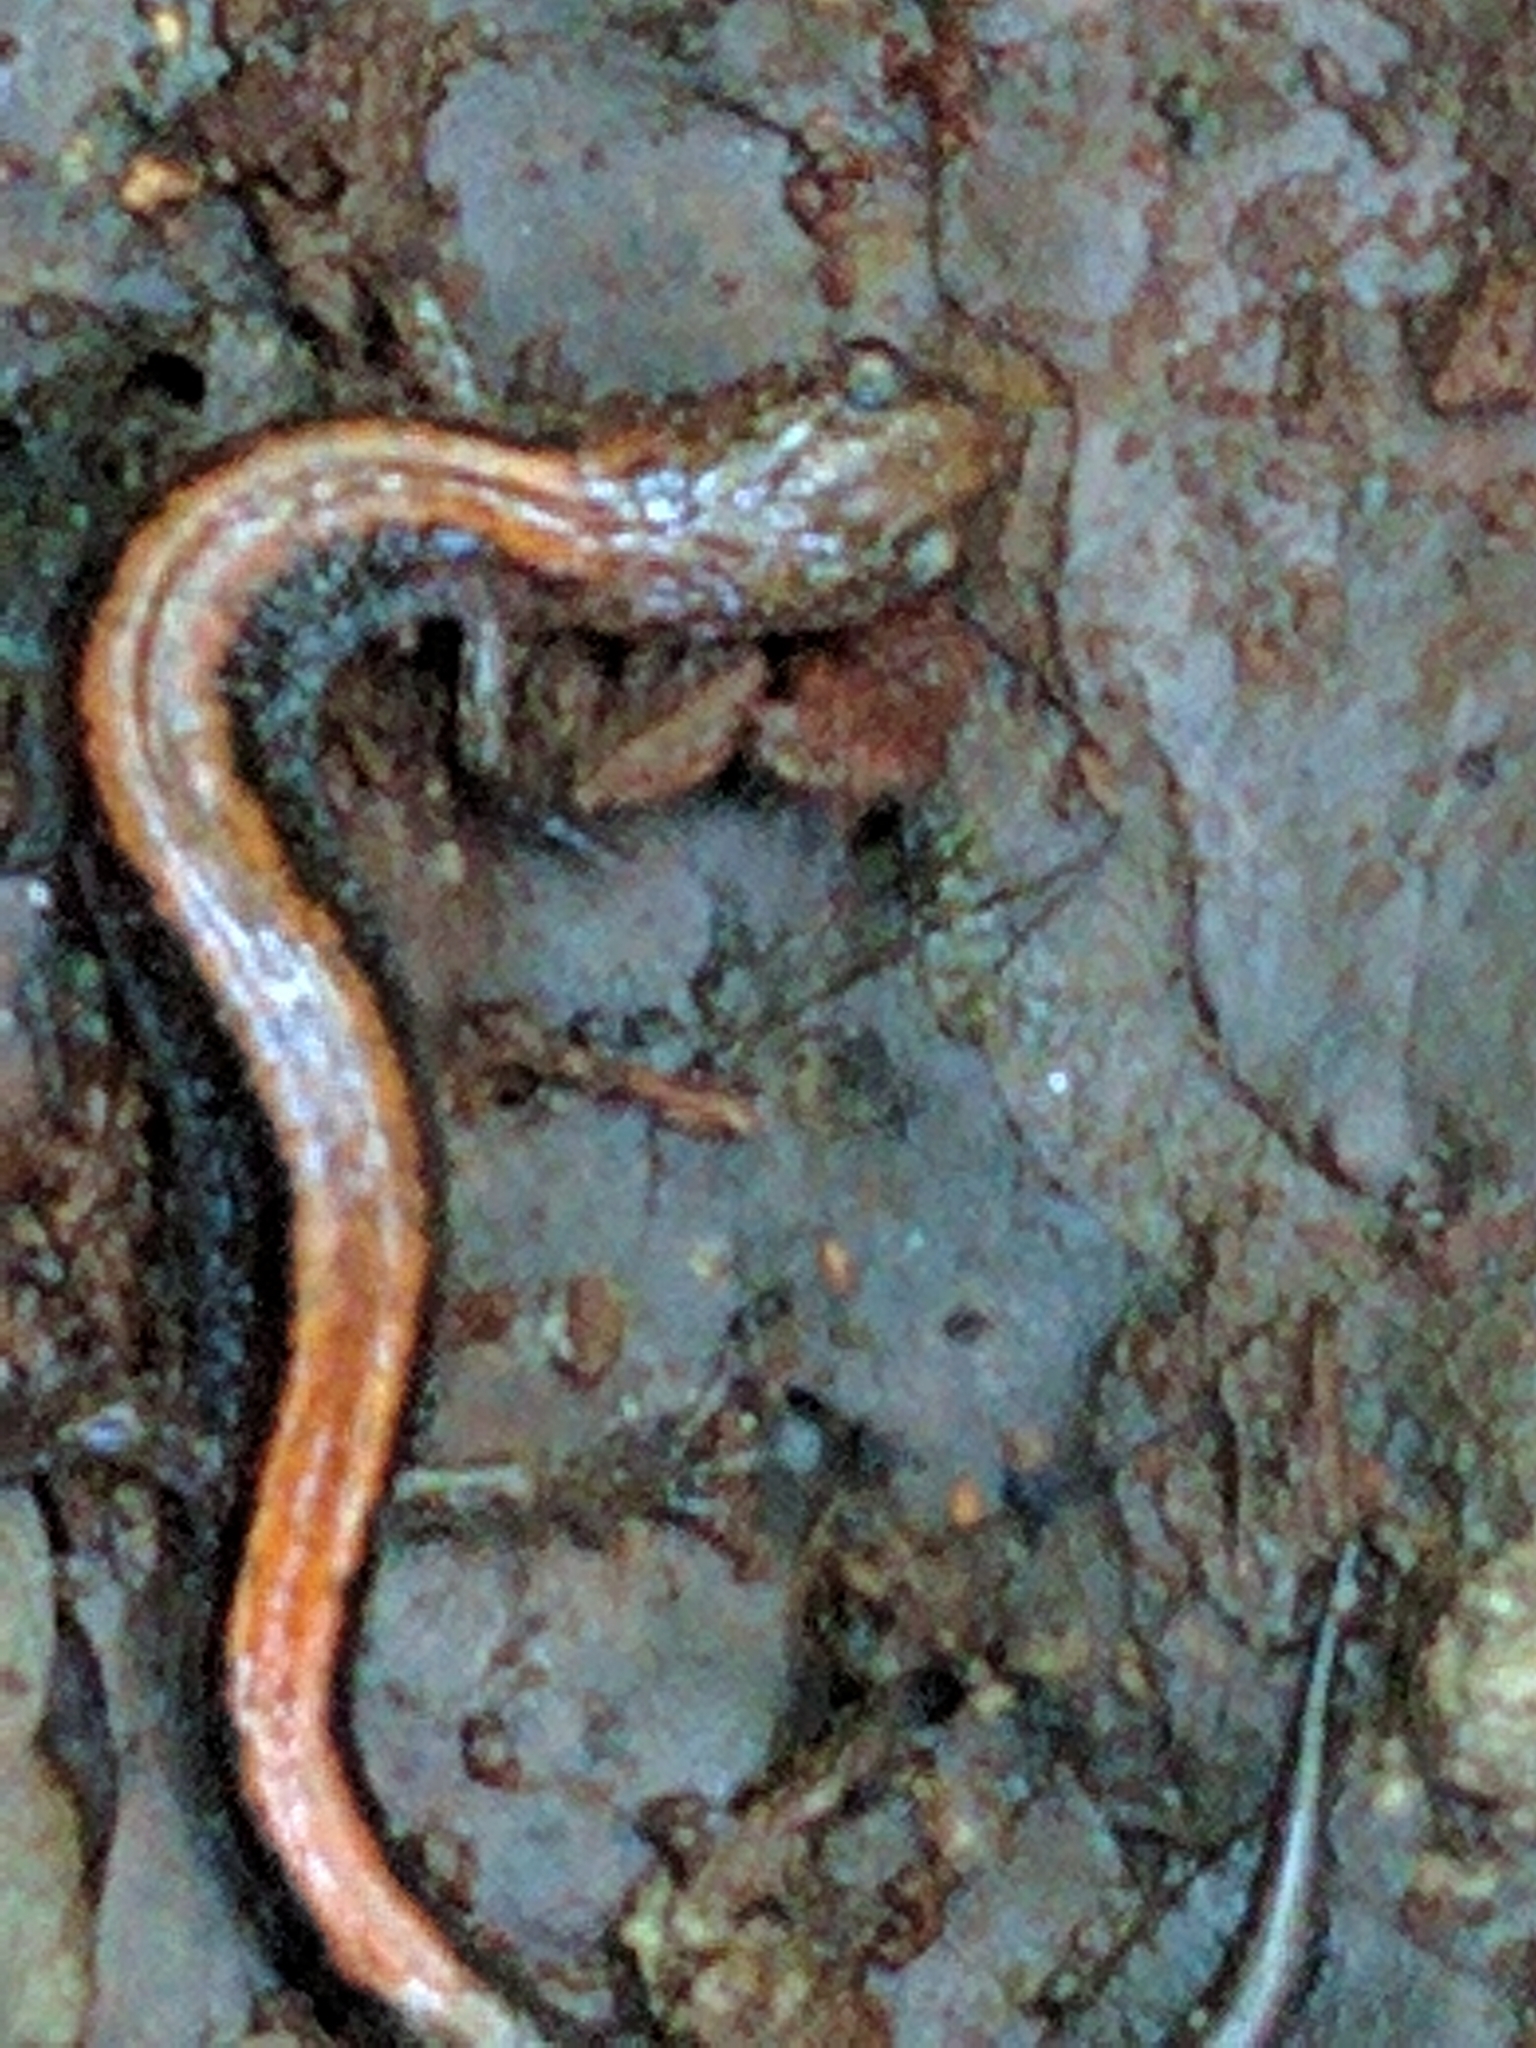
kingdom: Animalia
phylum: Chordata
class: Amphibia
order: Caudata
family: Plethodontidae
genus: Plethodon
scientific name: Plethodon cinereus
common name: Redback salamander
